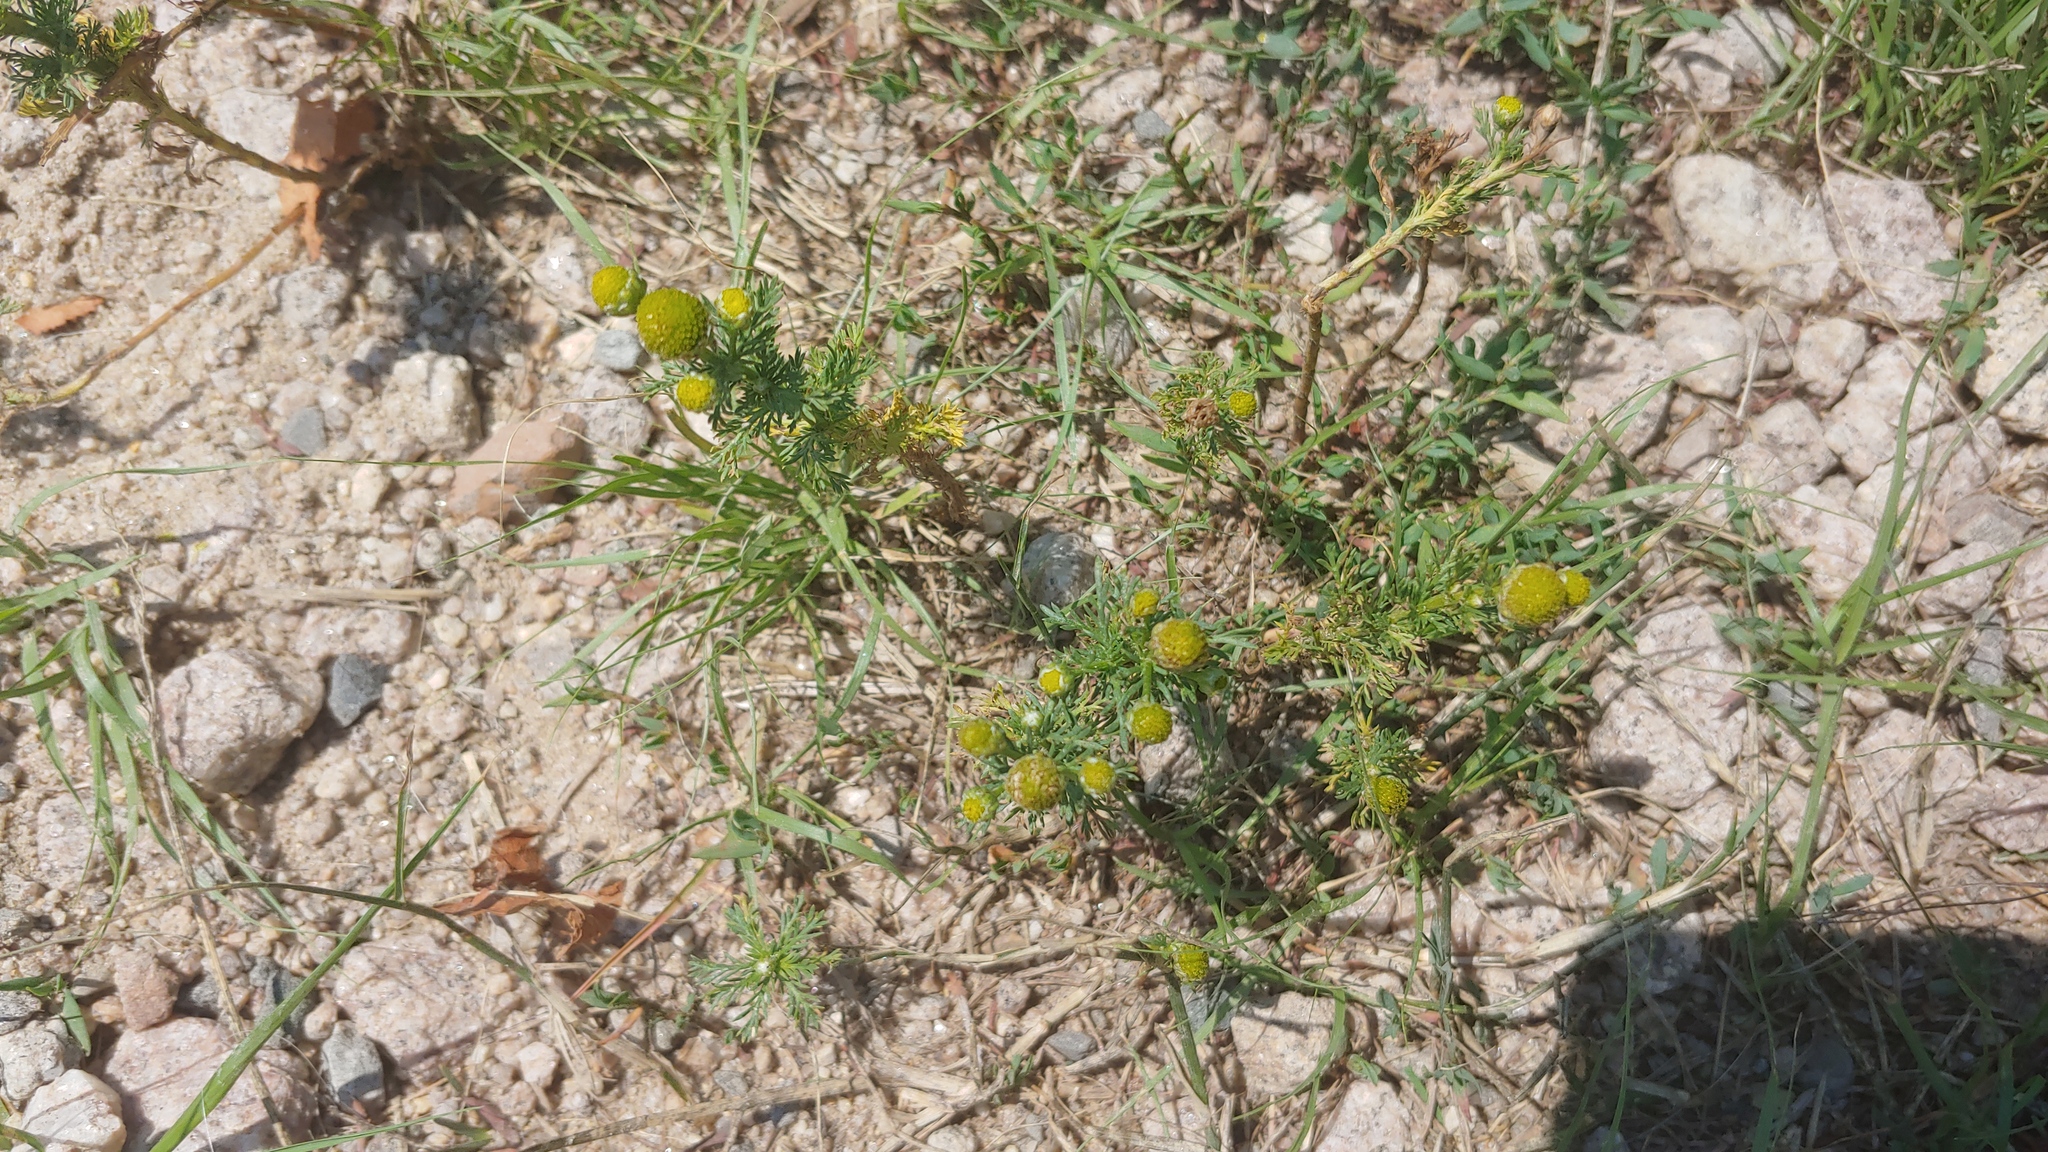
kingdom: Plantae
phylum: Tracheophyta
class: Magnoliopsida
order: Asterales
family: Asteraceae
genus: Matricaria
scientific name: Matricaria discoidea
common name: Disc mayweed
